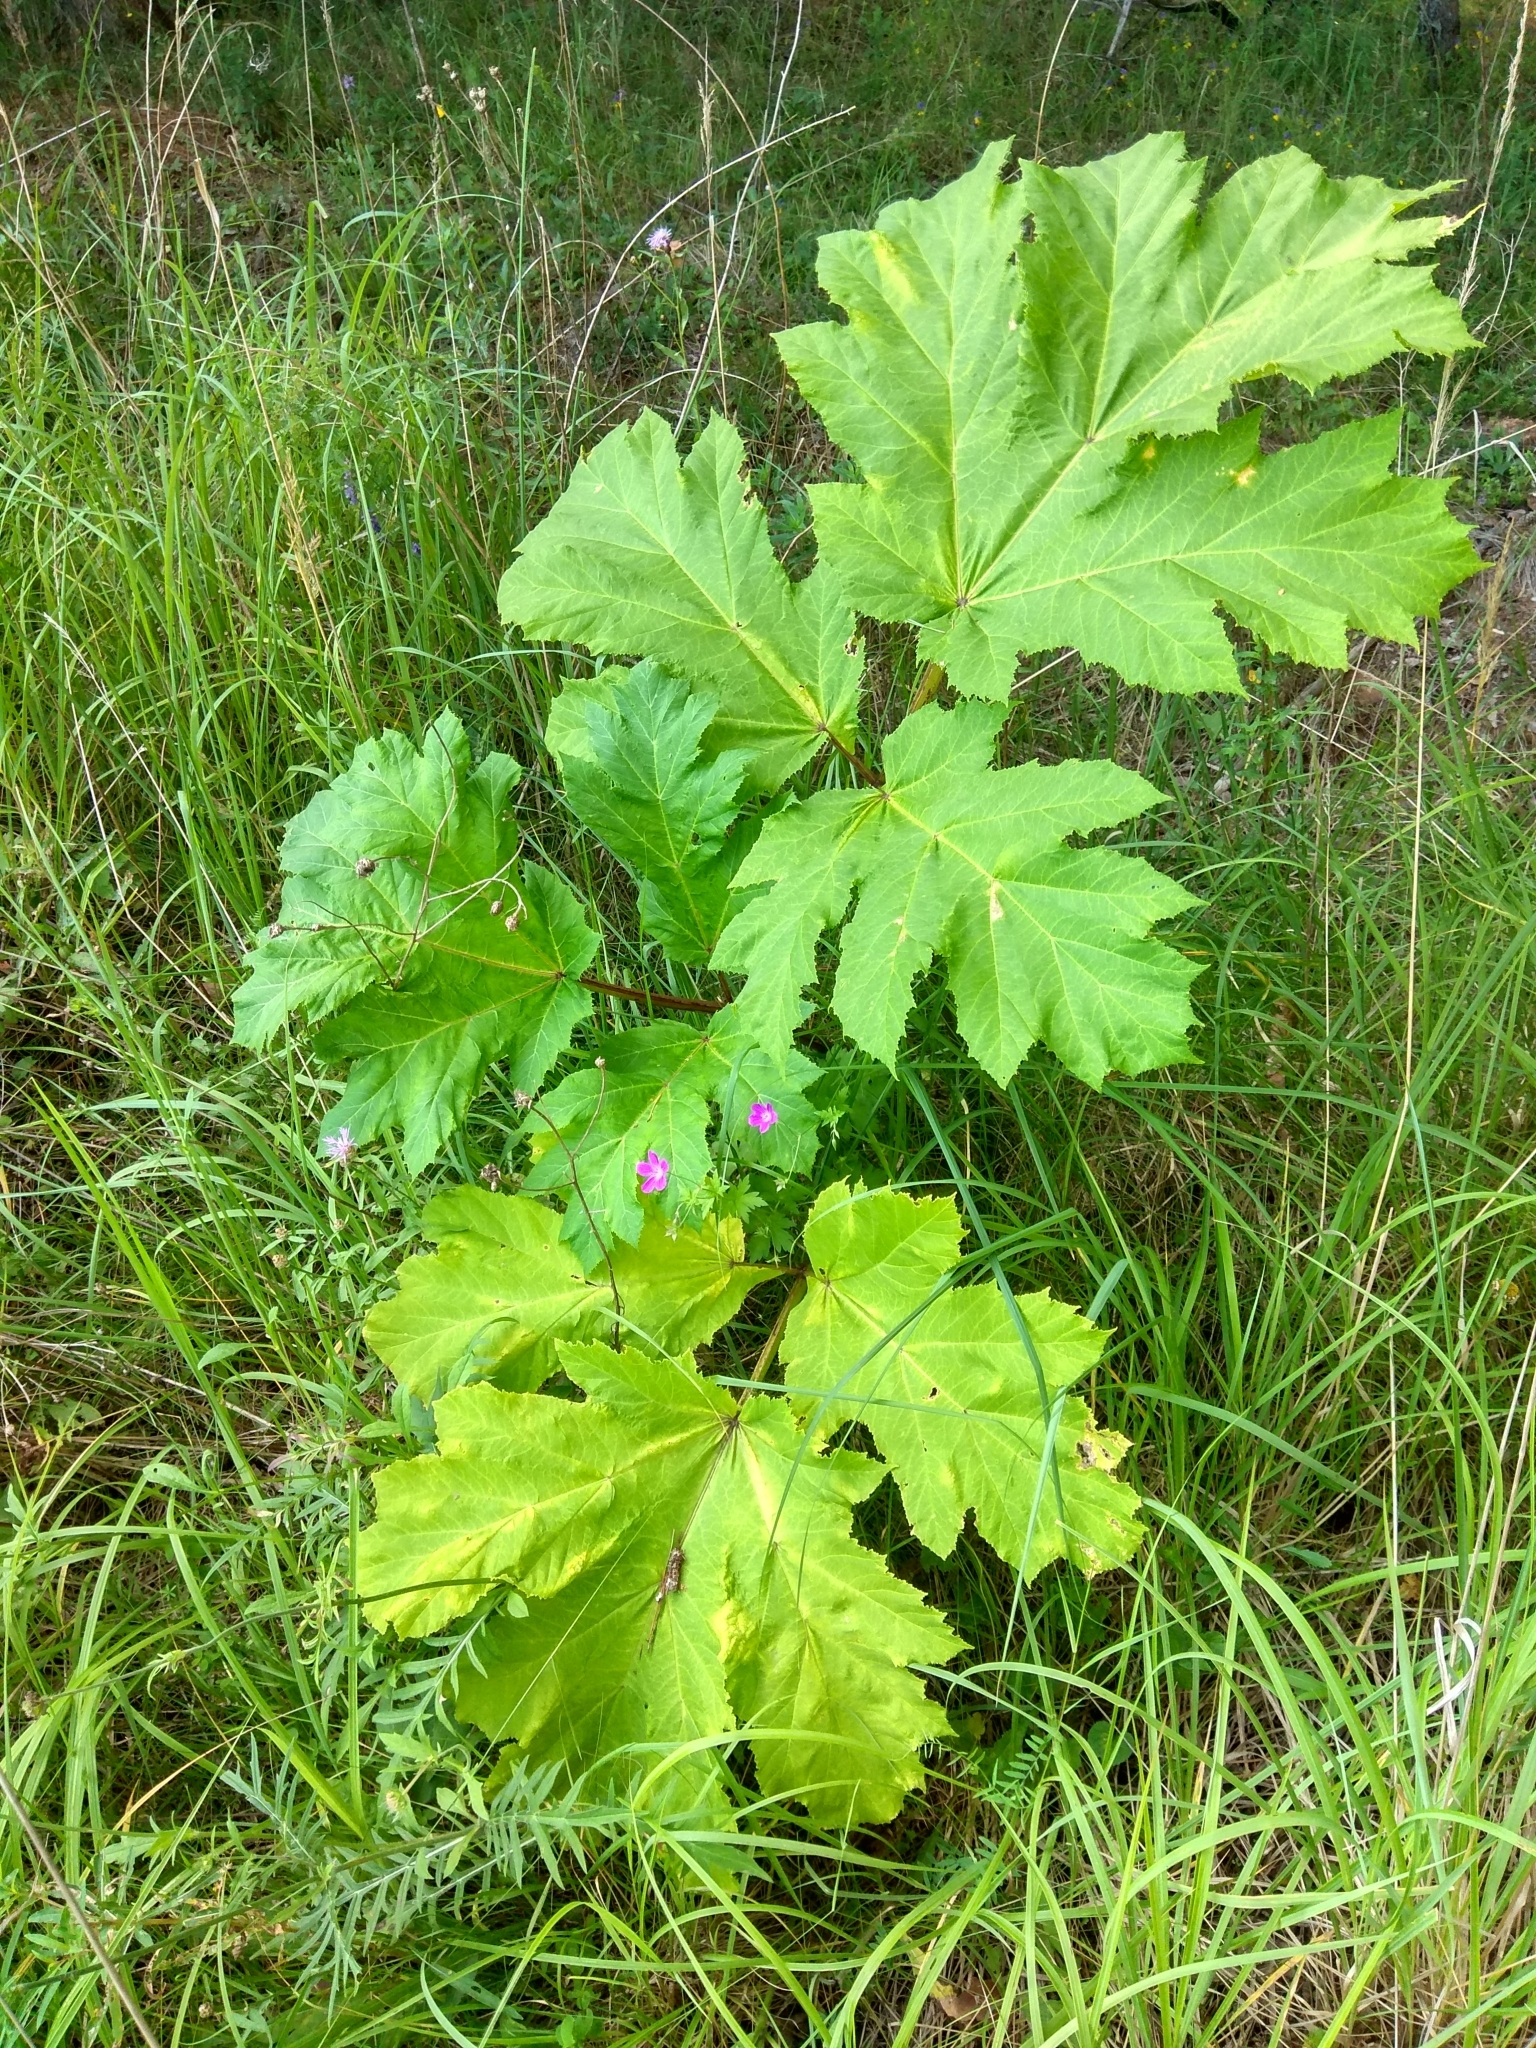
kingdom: Plantae
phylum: Tracheophyta
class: Magnoliopsida
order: Apiales
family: Apiaceae
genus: Heracleum
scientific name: Heracleum sosnowskyi
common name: Sosnowsky's hogweed
